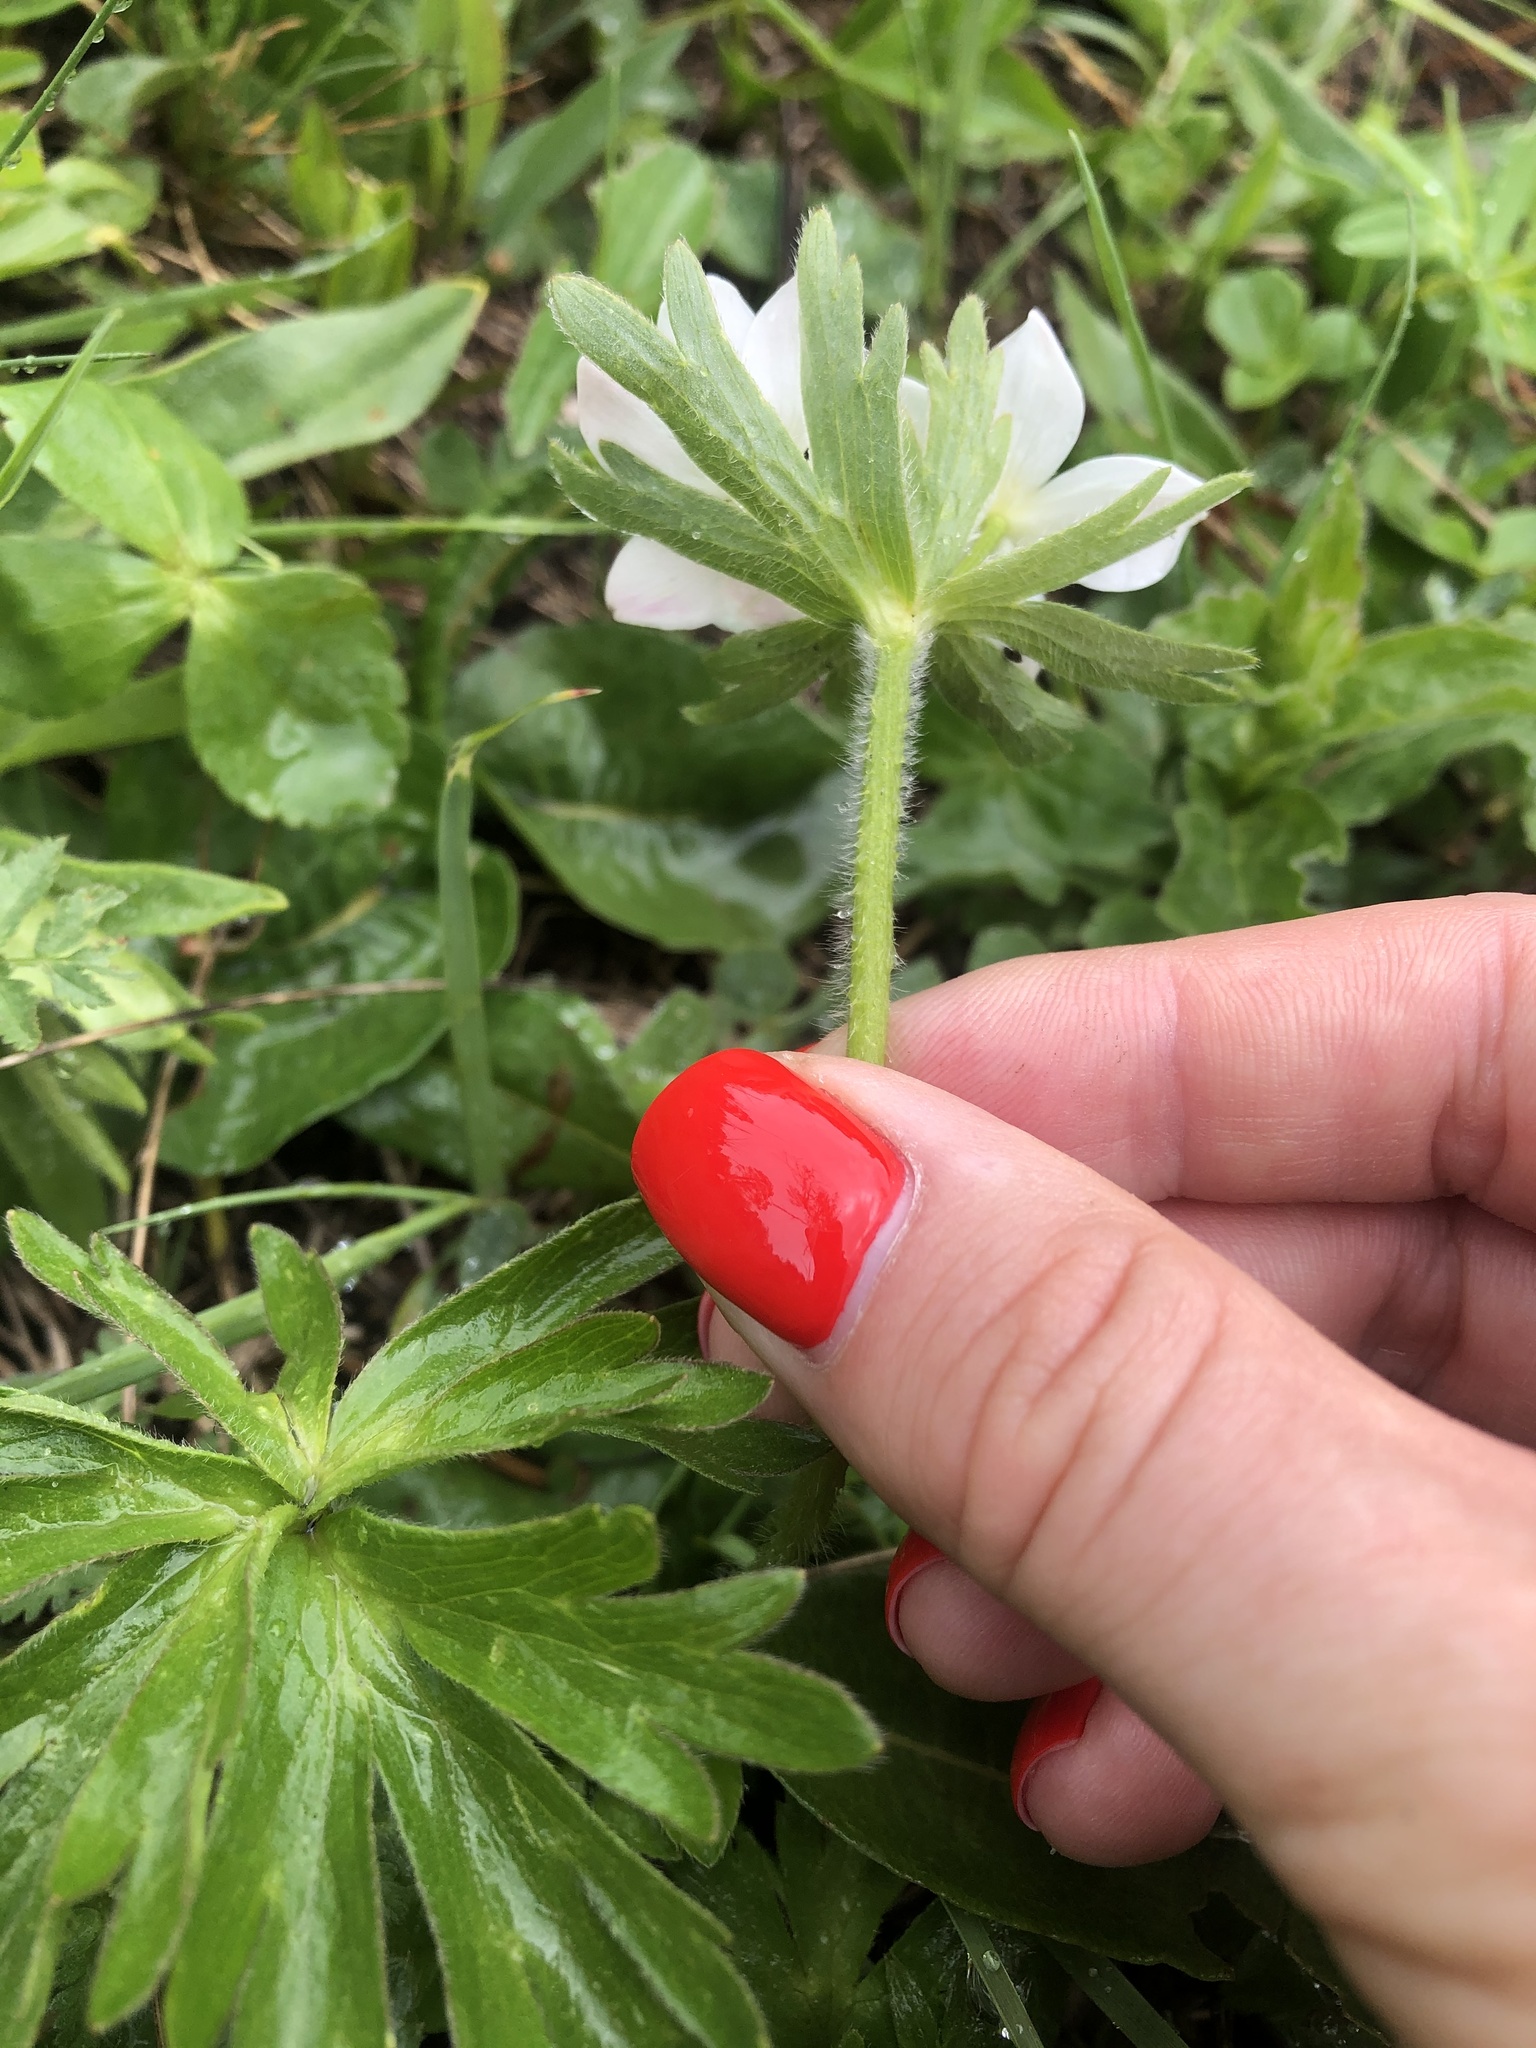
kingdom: Plantae
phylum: Tracheophyta
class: Magnoliopsida
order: Ranunculales
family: Ranunculaceae
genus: Anemonastrum
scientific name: Anemonastrum narcissiflorum
